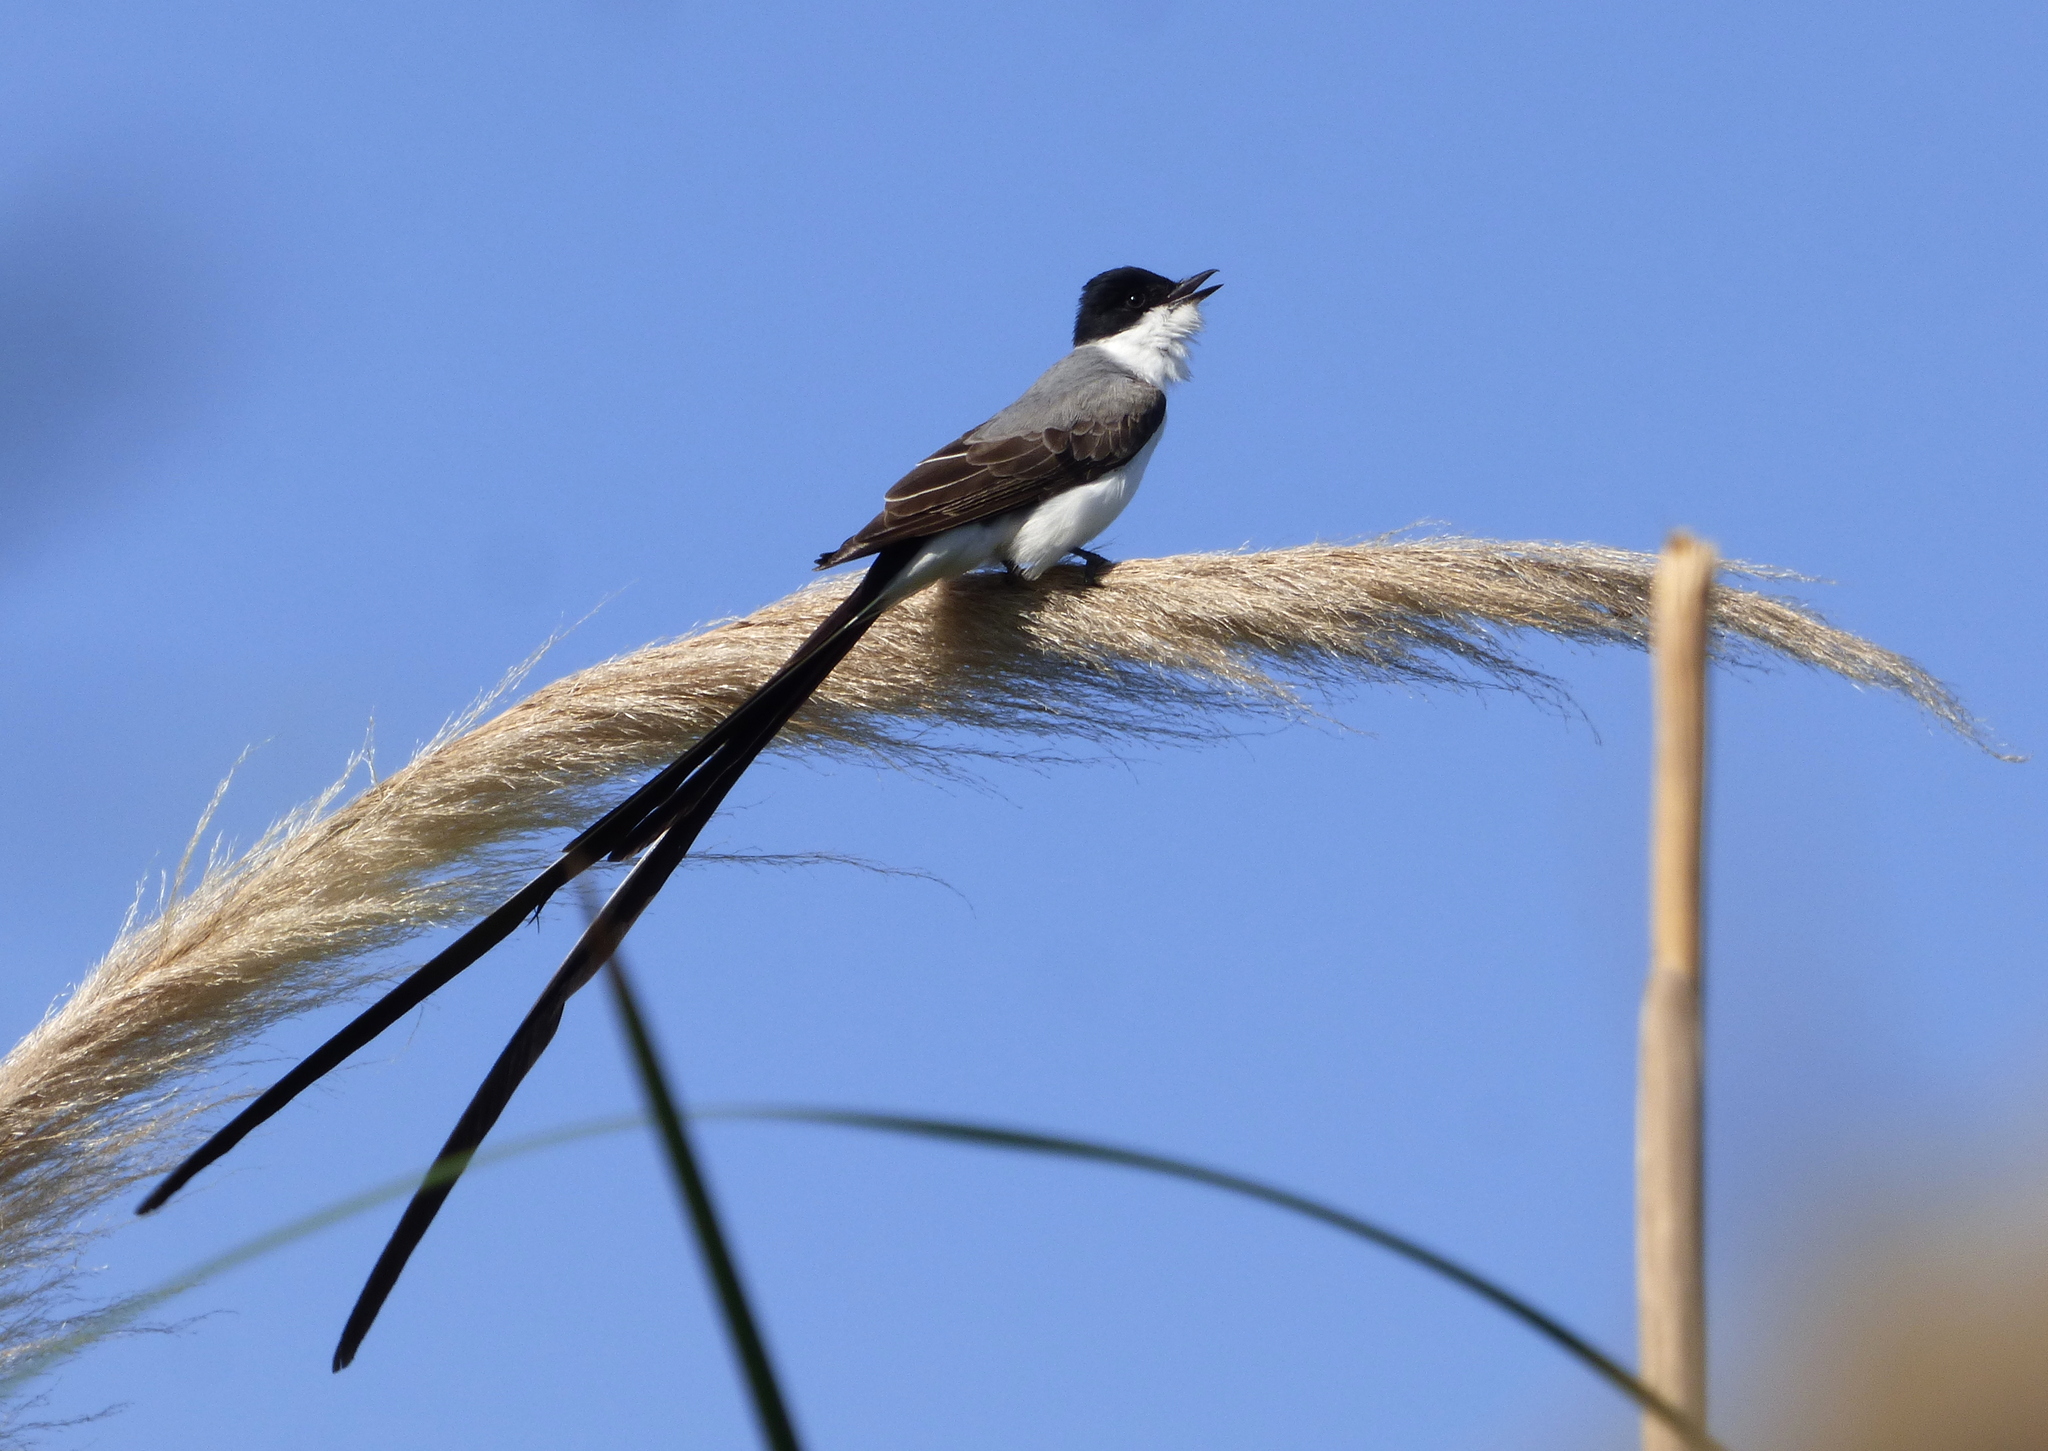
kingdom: Animalia
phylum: Chordata
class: Aves
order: Passeriformes
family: Tyrannidae
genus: Tyrannus
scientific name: Tyrannus savana
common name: Fork-tailed flycatcher
